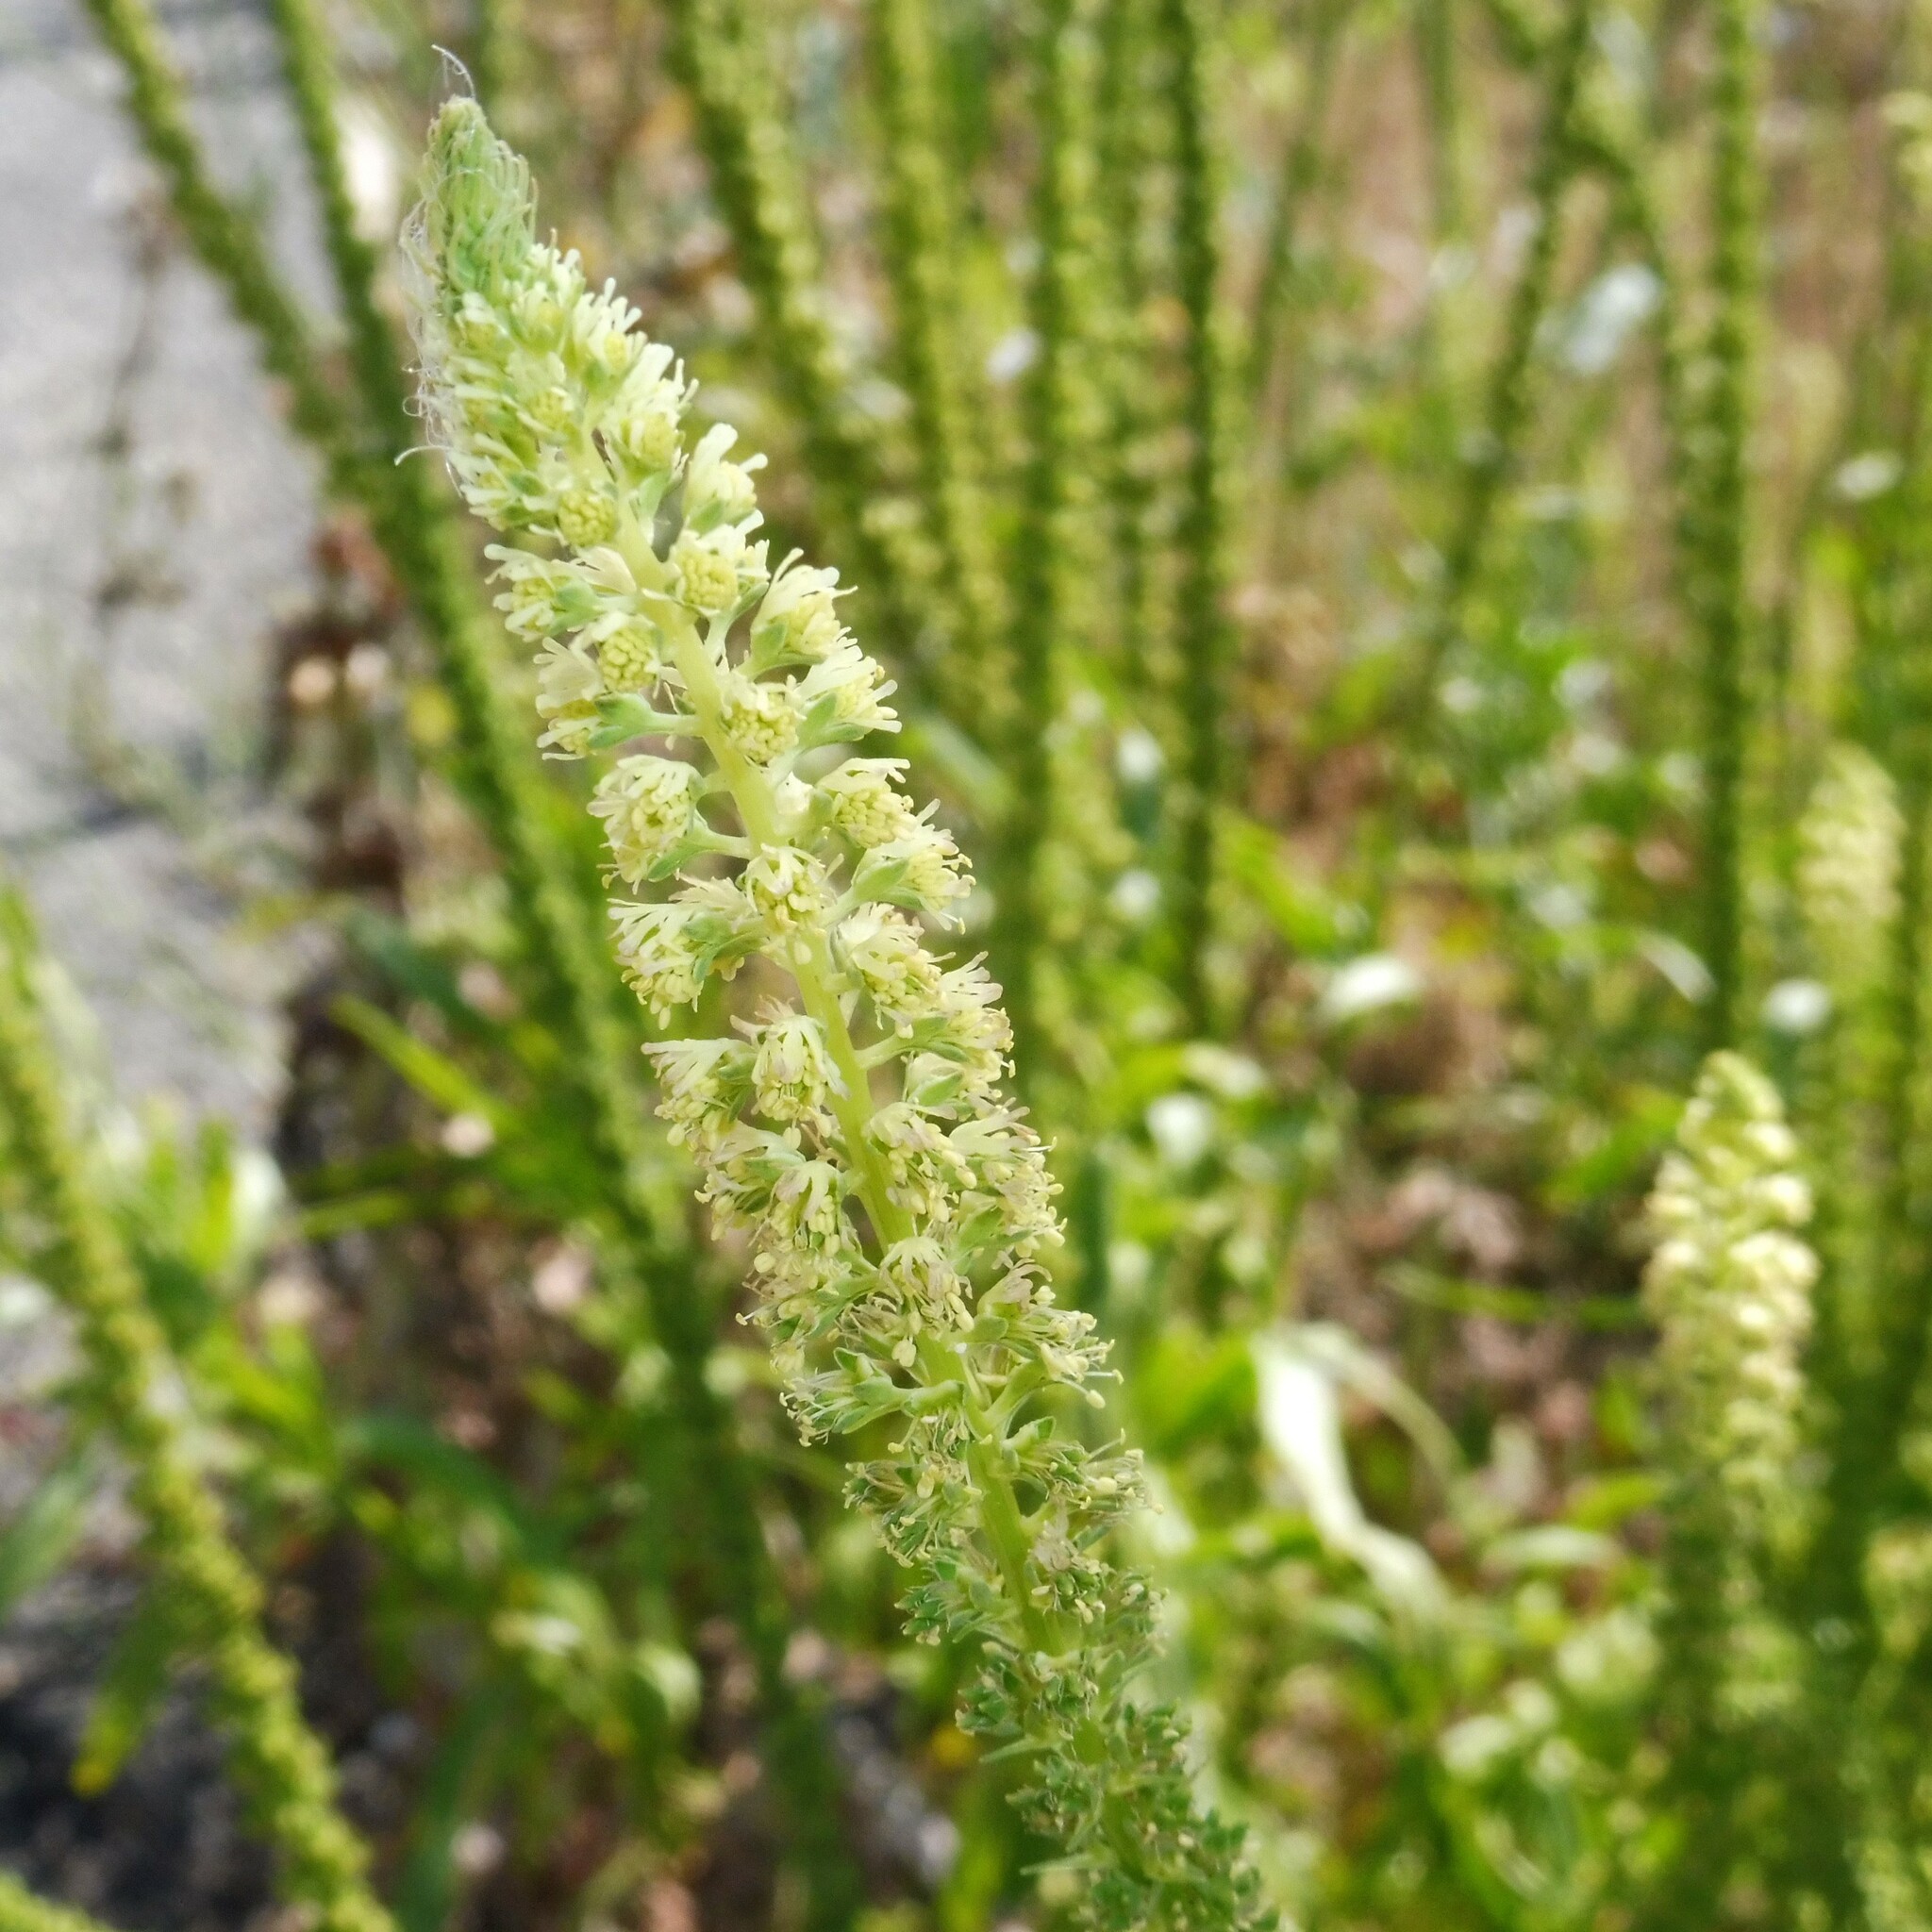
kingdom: Plantae
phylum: Tracheophyta
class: Magnoliopsida
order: Brassicales
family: Resedaceae
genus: Reseda
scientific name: Reseda luteola
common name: Weld
